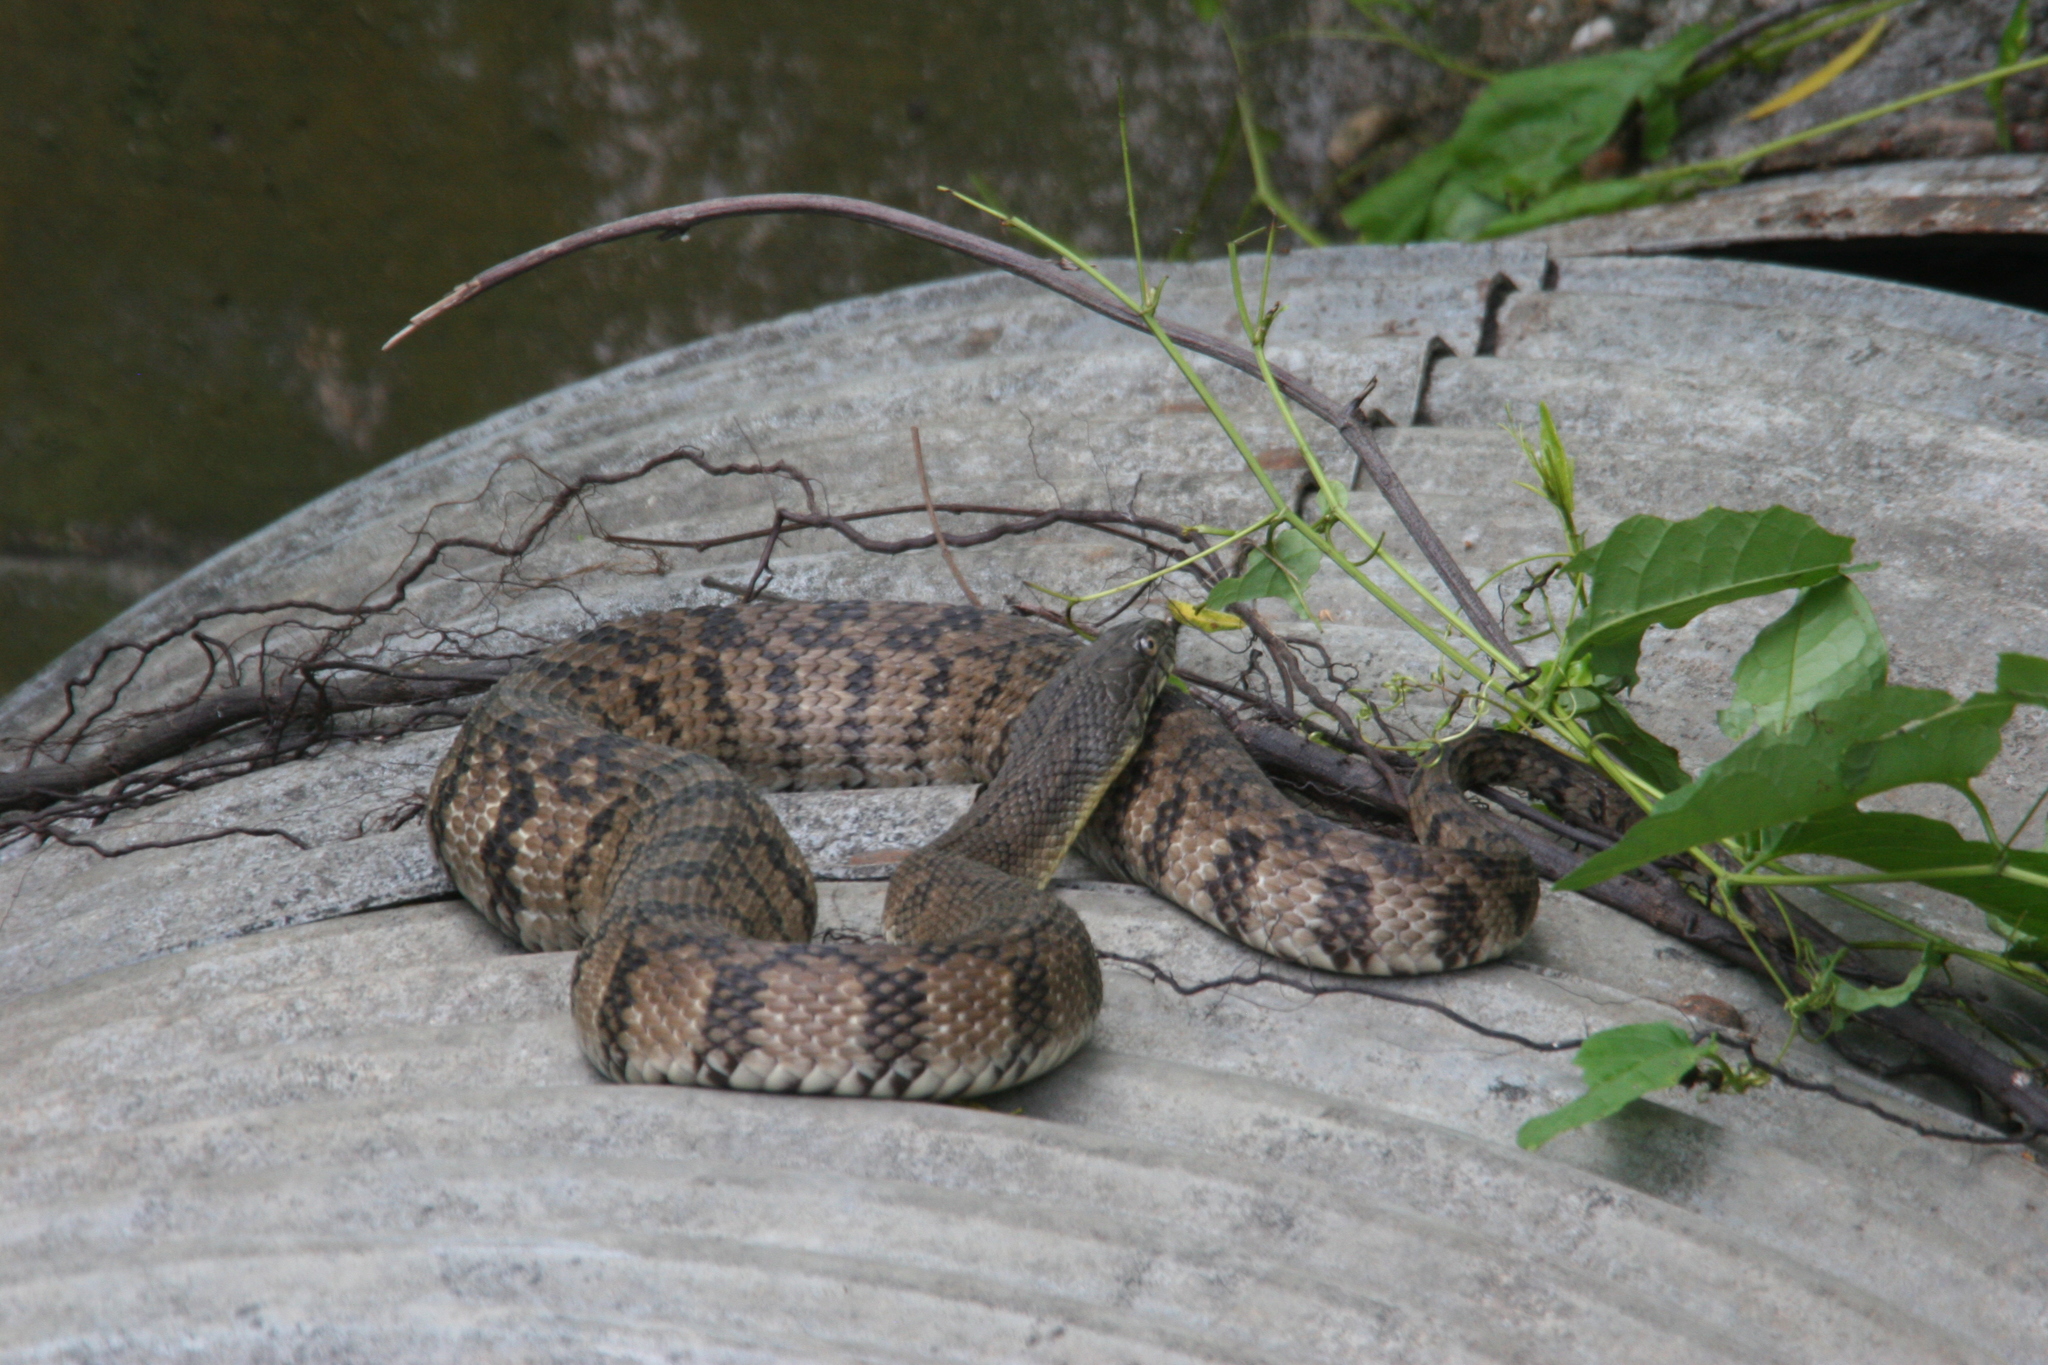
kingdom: Animalia
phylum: Chordata
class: Squamata
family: Colubridae
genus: Nerodia
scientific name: Nerodia rhombifer
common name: Diamondback water snake
